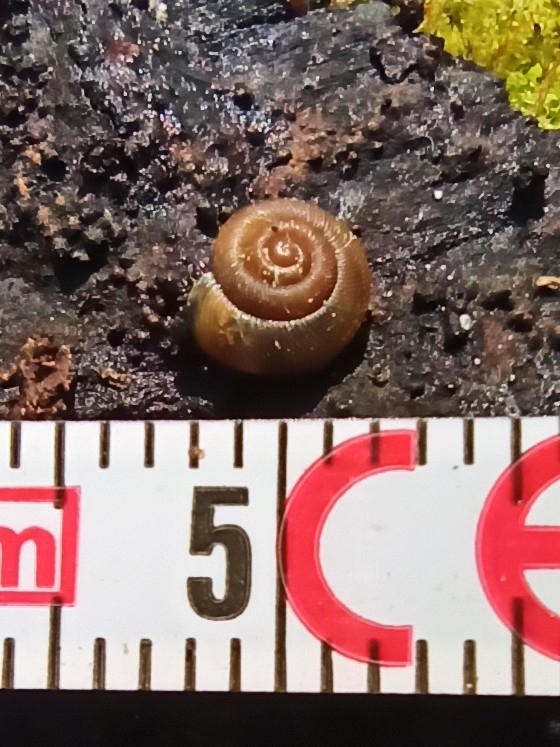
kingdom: Animalia
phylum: Mollusca
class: Gastropoda
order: Stylommatophora
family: Discidae
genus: Discus
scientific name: Discus ruderatus
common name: Brown disc snail
